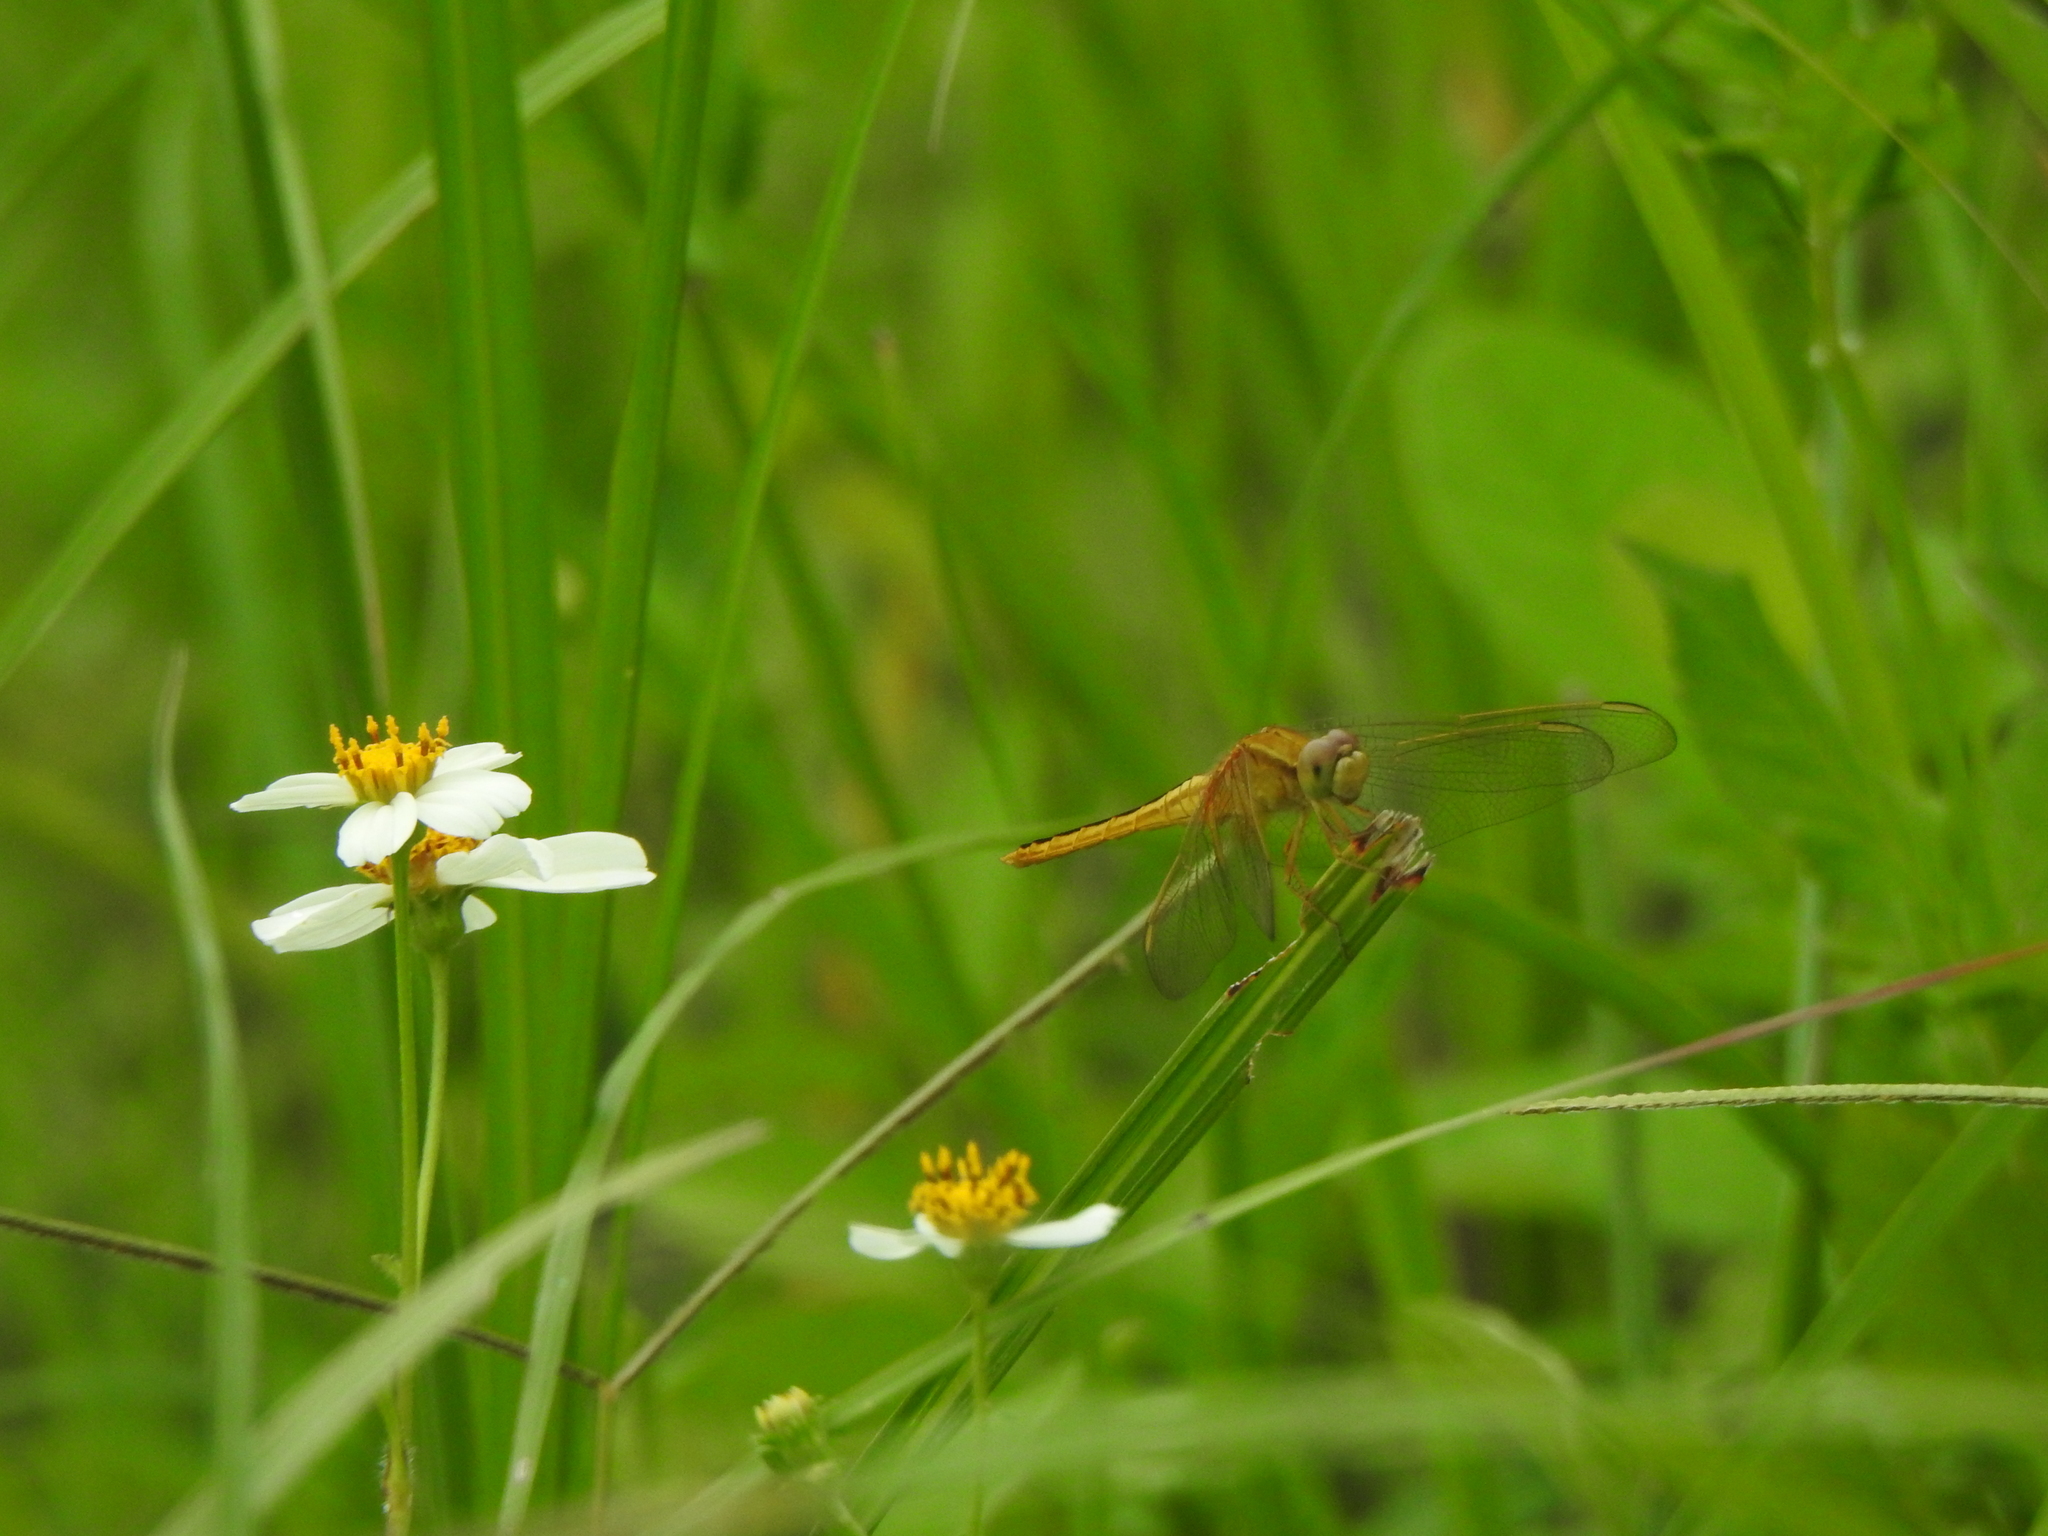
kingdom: Animalia
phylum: Arthropoda
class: Insecta
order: Odonata
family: Libellulidae
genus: Crocothemis
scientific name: Crocothemis servilia
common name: Scarlet skimmer
